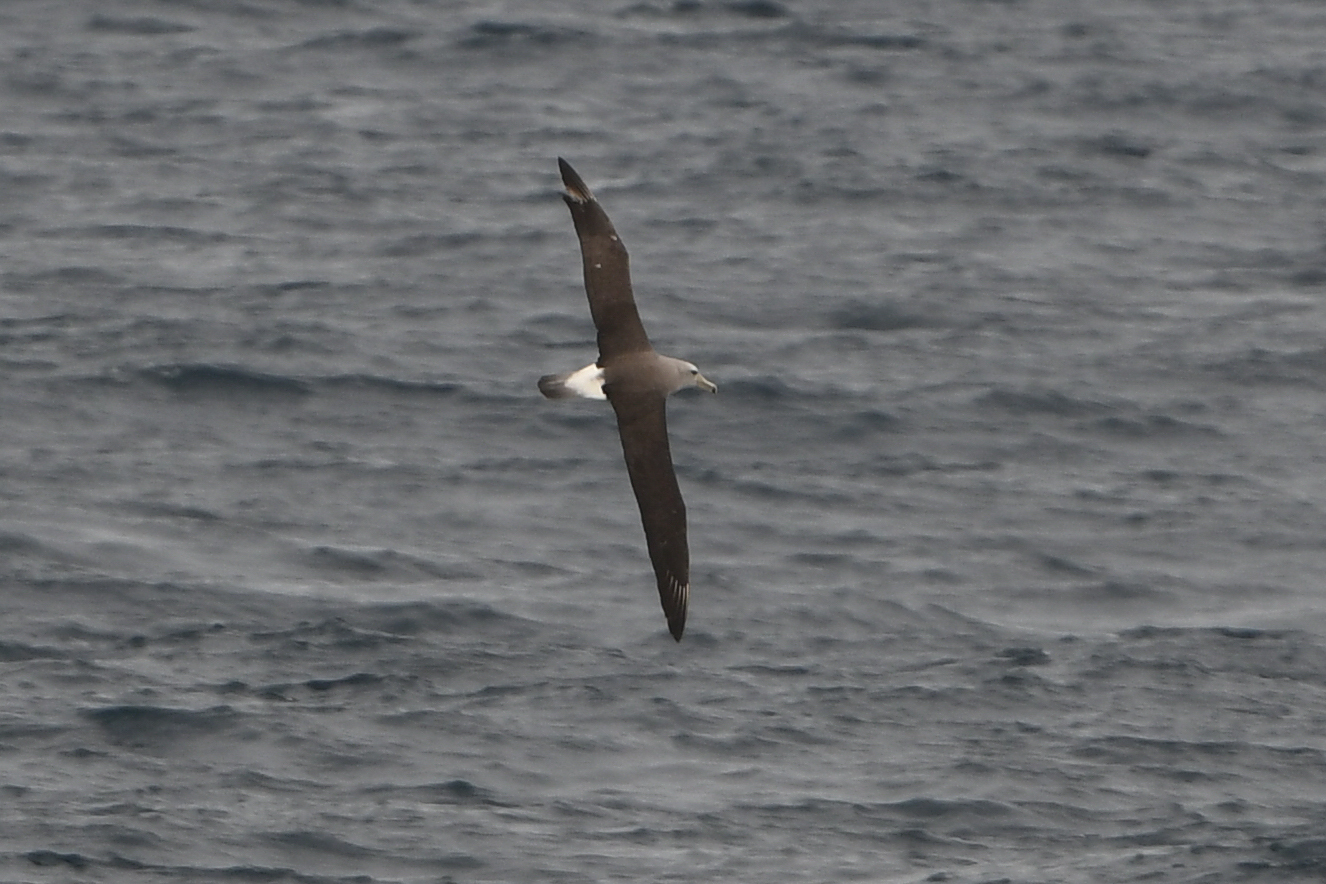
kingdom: Animalia
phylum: Chordata
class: Aves
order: Procellariiformes
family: Diomedeidae
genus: Thalassarche
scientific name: Thalassarche salvini
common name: Salvin's albatross
